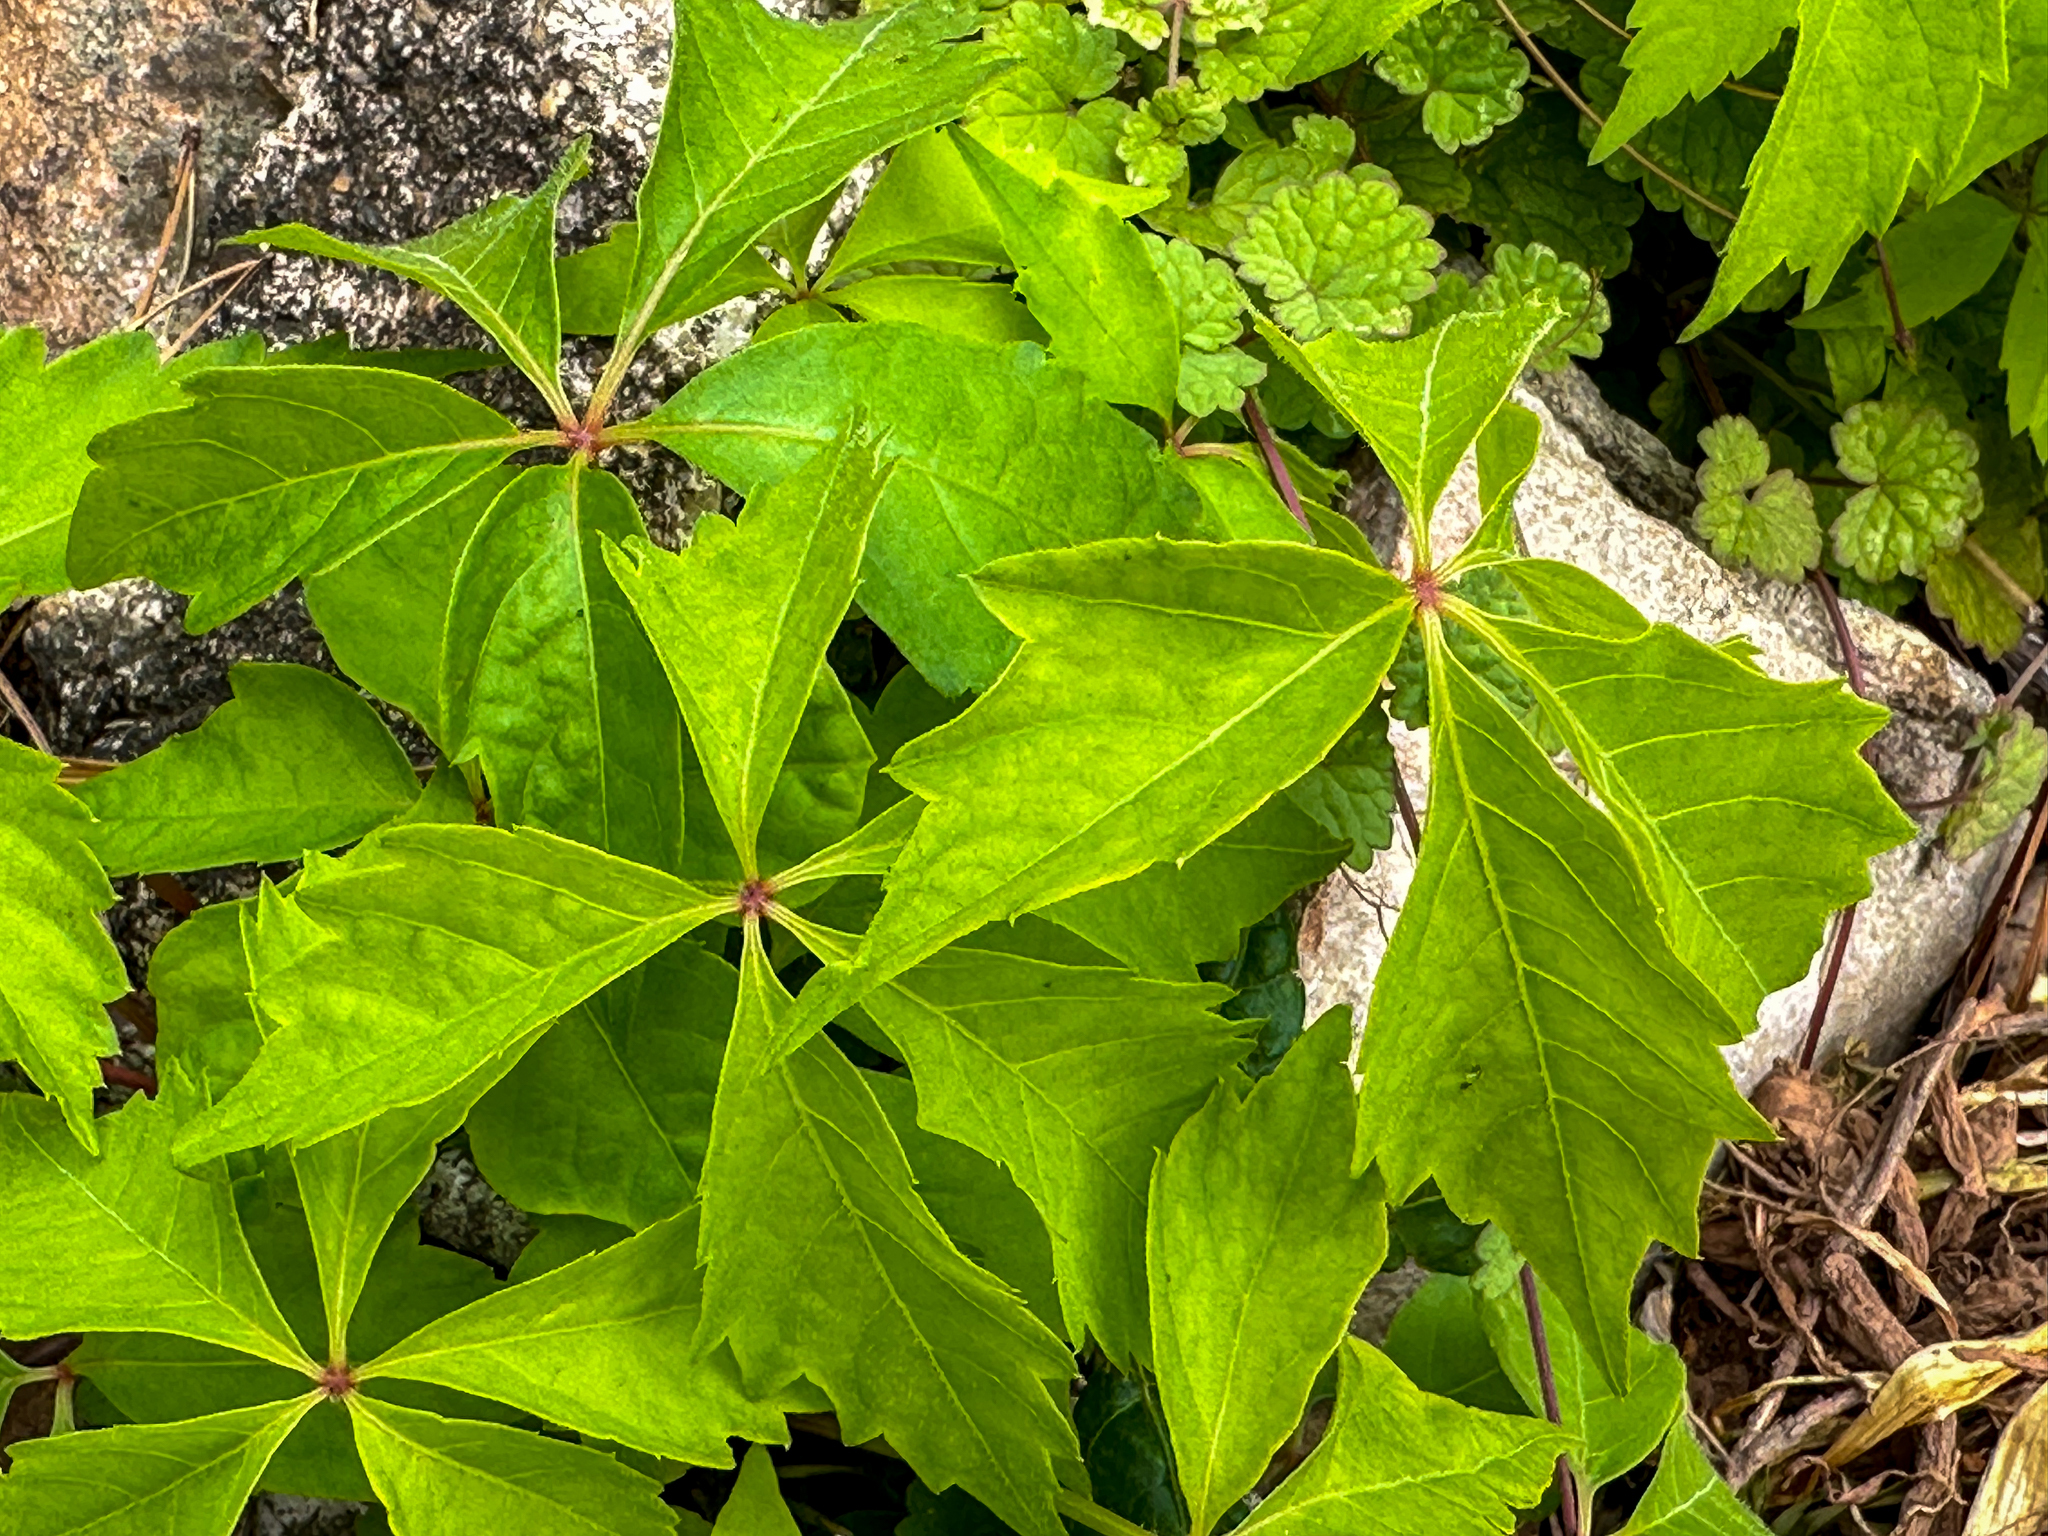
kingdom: Plantae
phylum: Tracheophyta
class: Magnoliopsida
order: Vitales
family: Vitaceae
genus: Parthenocissus
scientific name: Parthenocissus quinquefolia
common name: Virginia-creeper
